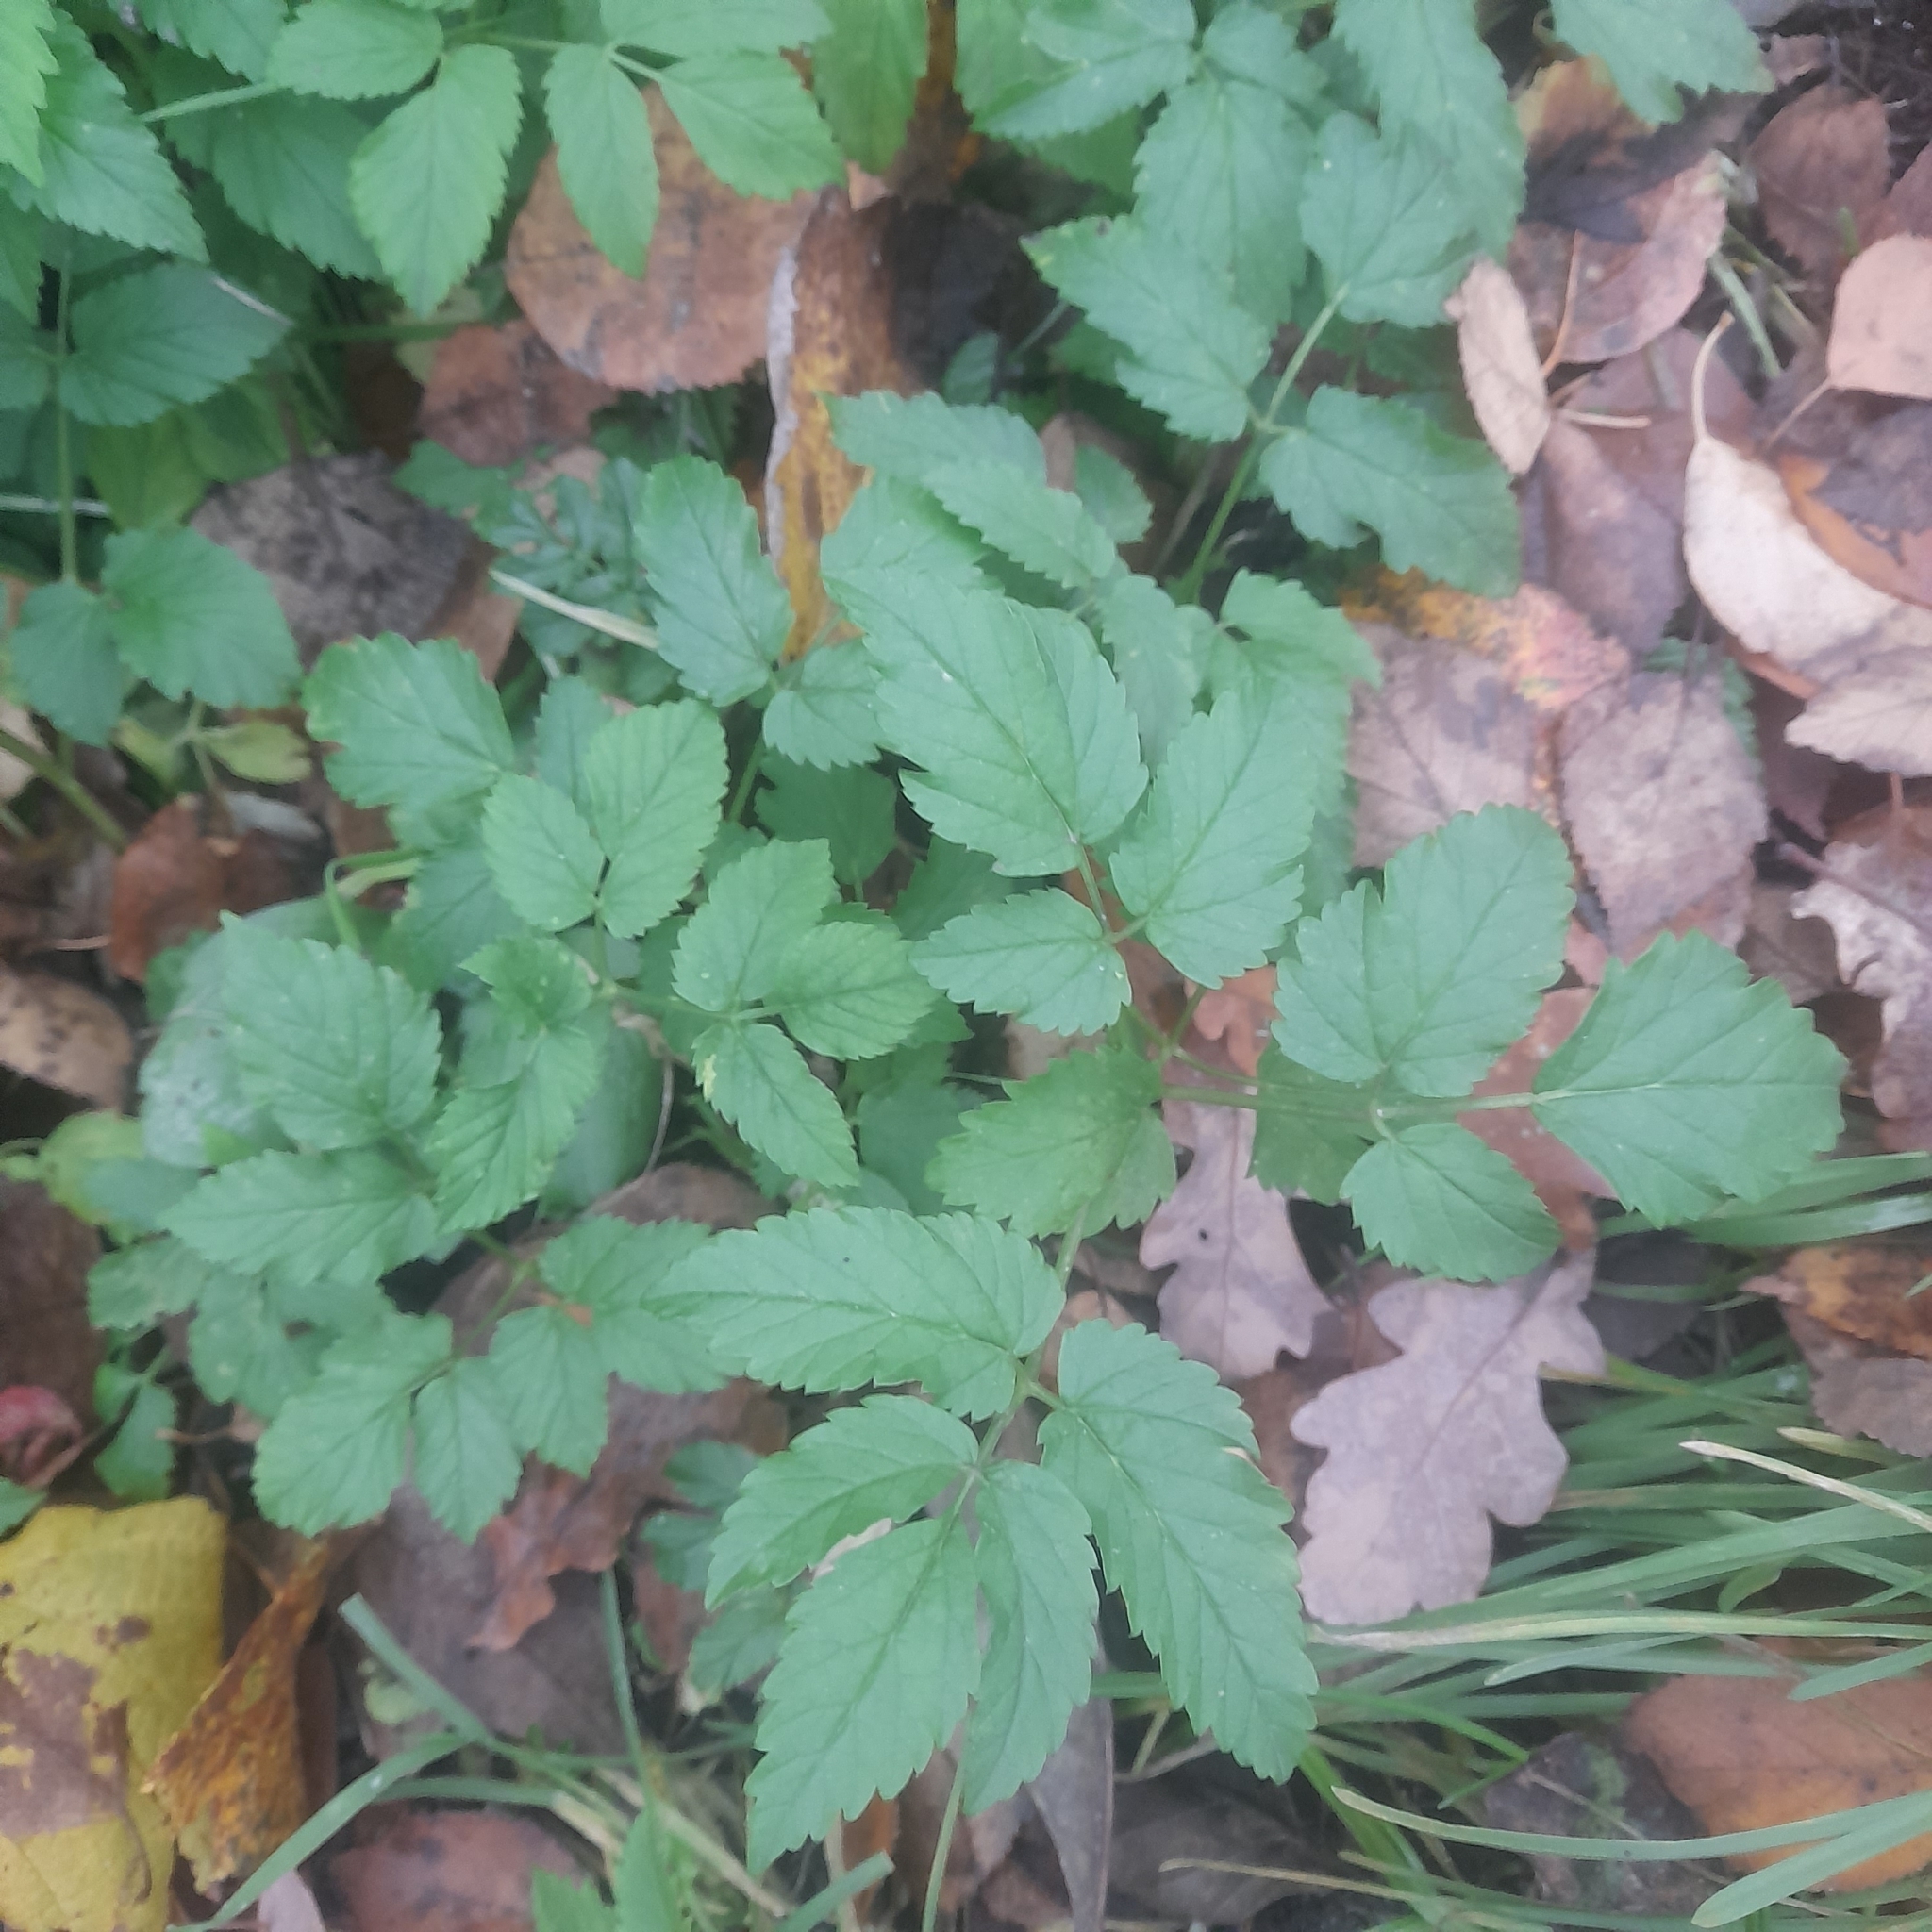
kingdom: Plantae
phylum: Tracheophyta
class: Magnoliopsida
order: Apiales
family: Apiaceae
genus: Aegopodium
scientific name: Aegopodium podagraria
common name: Ground-elder
